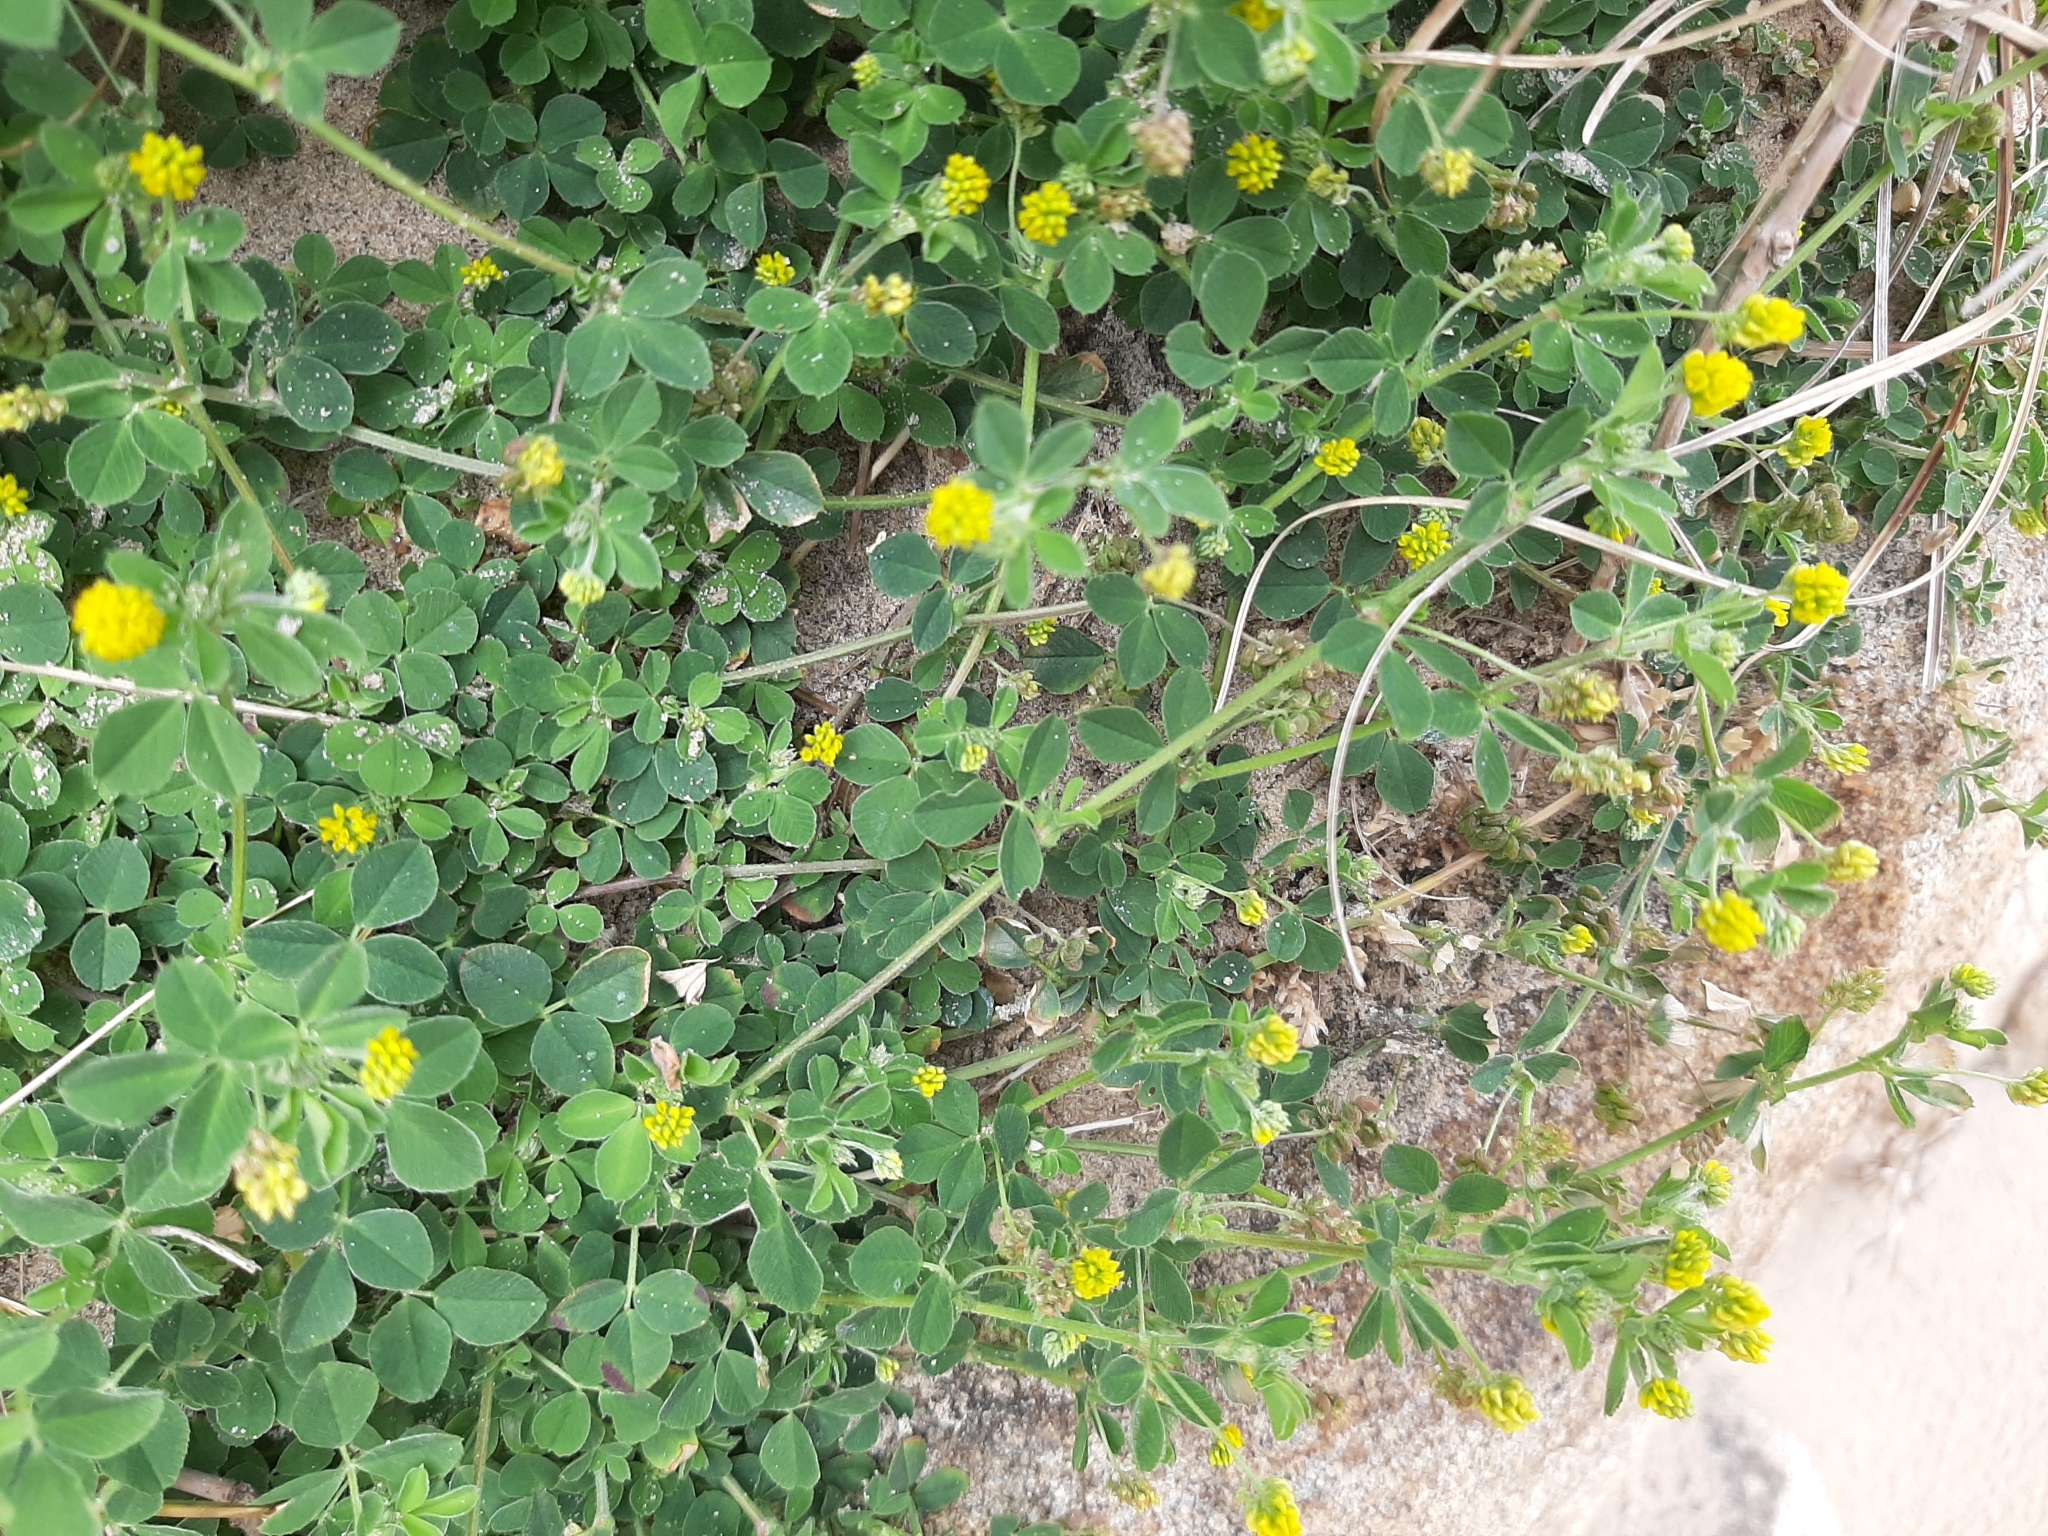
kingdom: Plantae
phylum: Tracheophyta
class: Magnoliopsida
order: Fabales
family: Fabaceae
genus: Medicago
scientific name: Medicago lupulina
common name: Black medick
